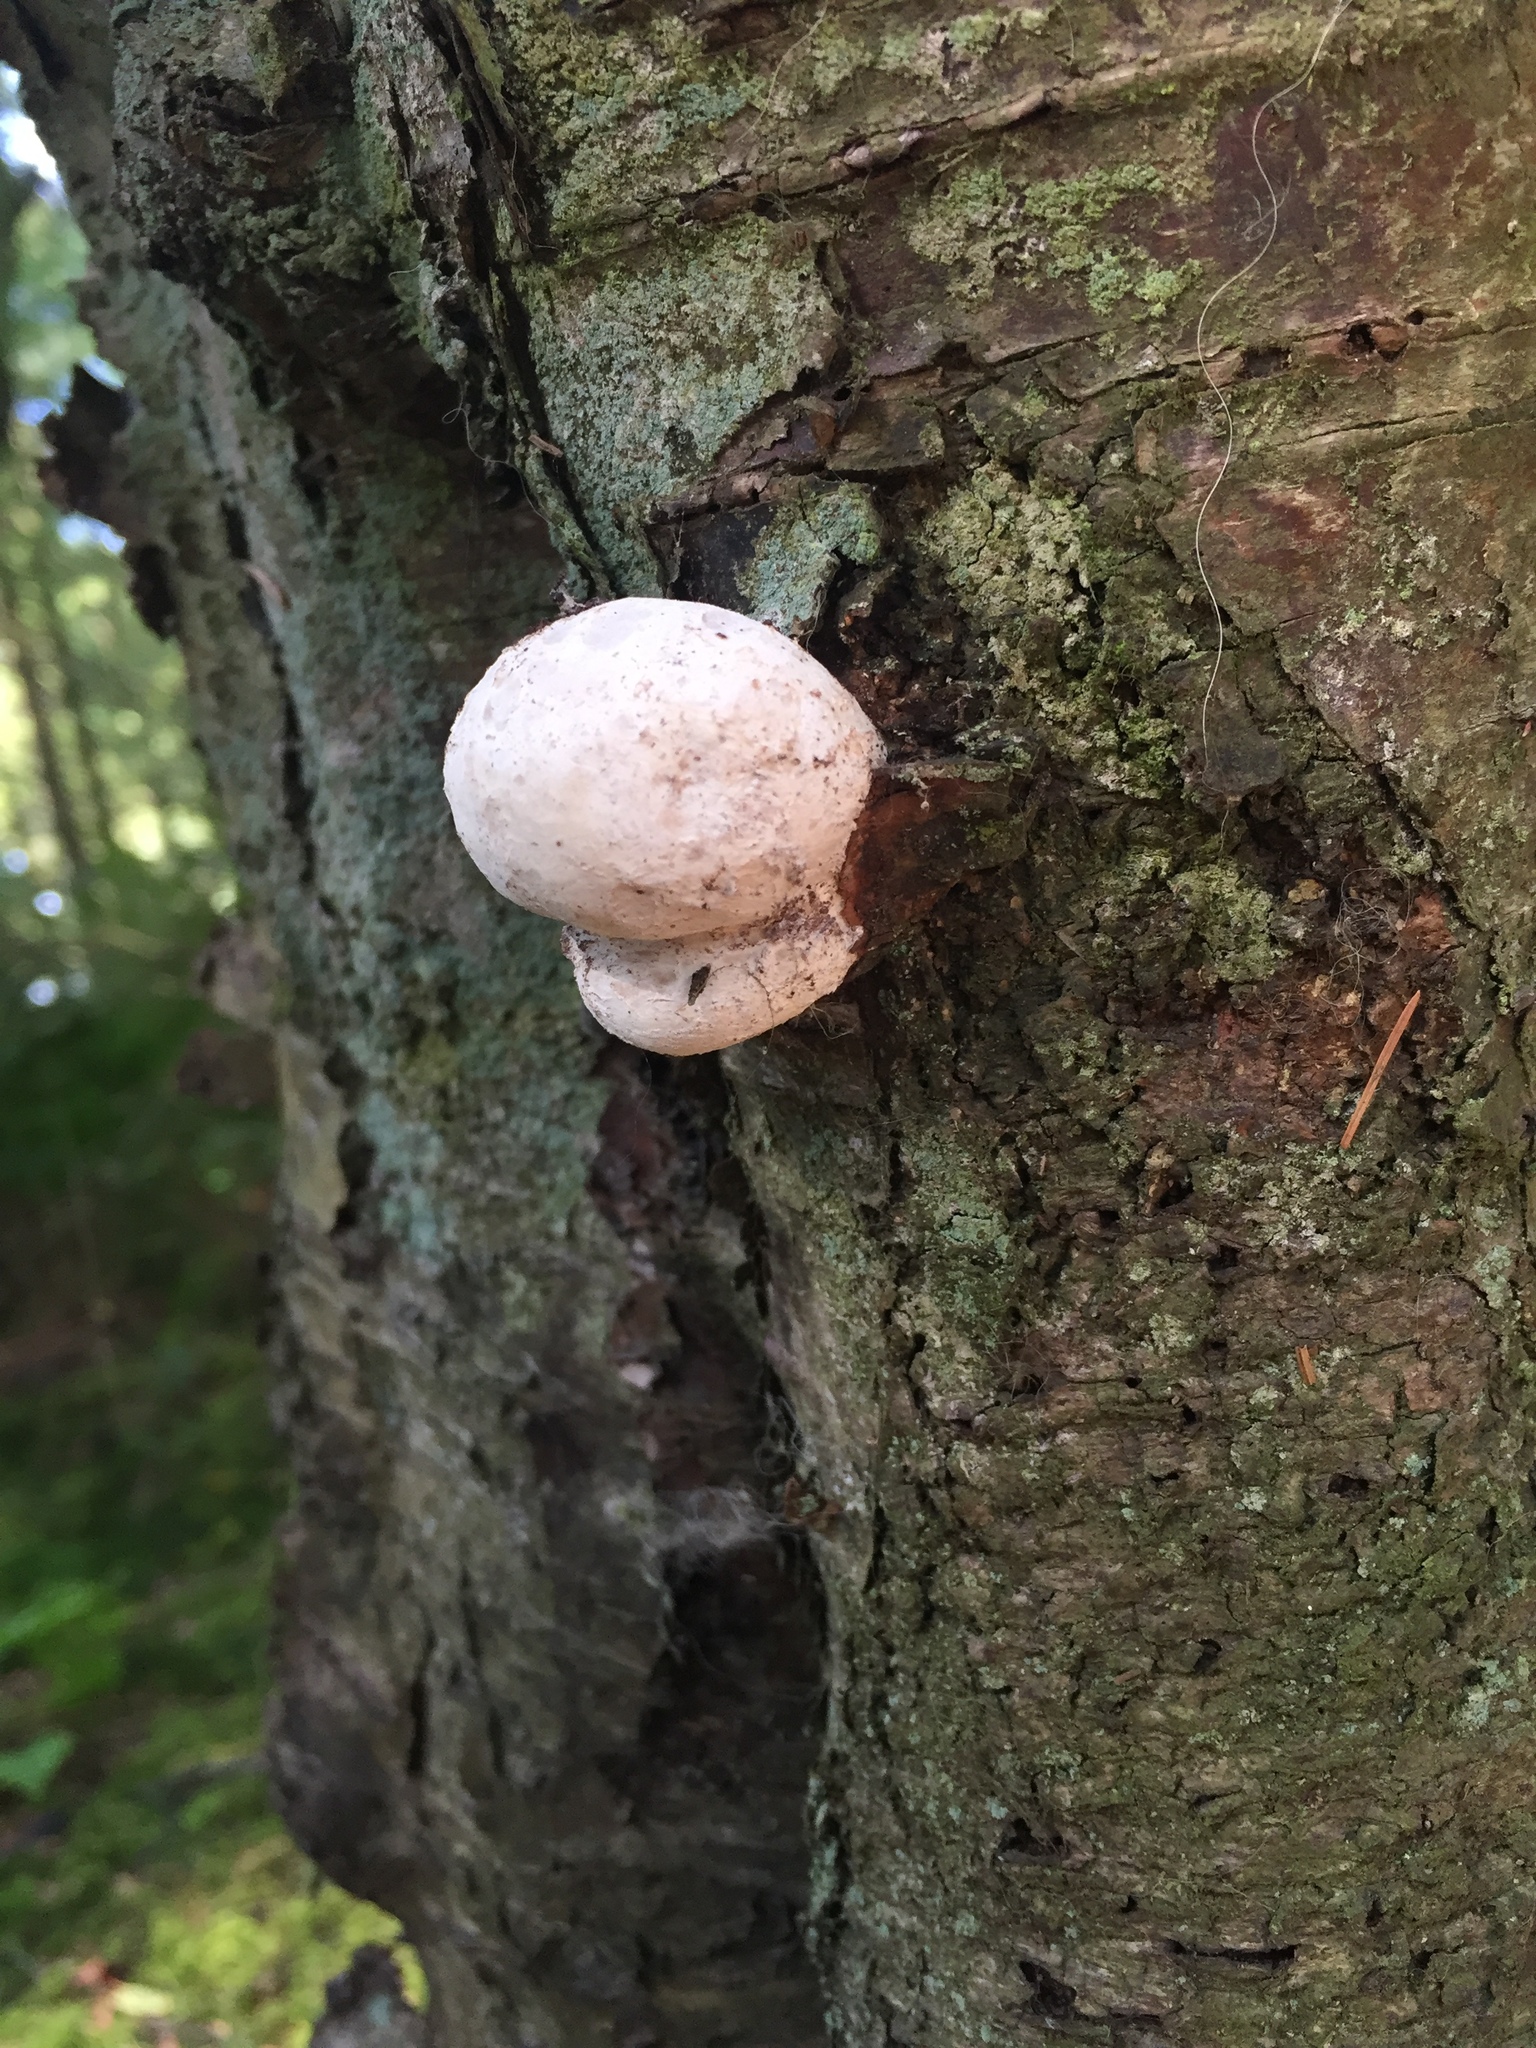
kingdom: Fungi
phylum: Basidiomycota
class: Agaricomycetes
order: Polyporales
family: Fomitopsidaceae
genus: Fomitopsis
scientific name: Fomitopsis betulina
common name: Birch polypore
